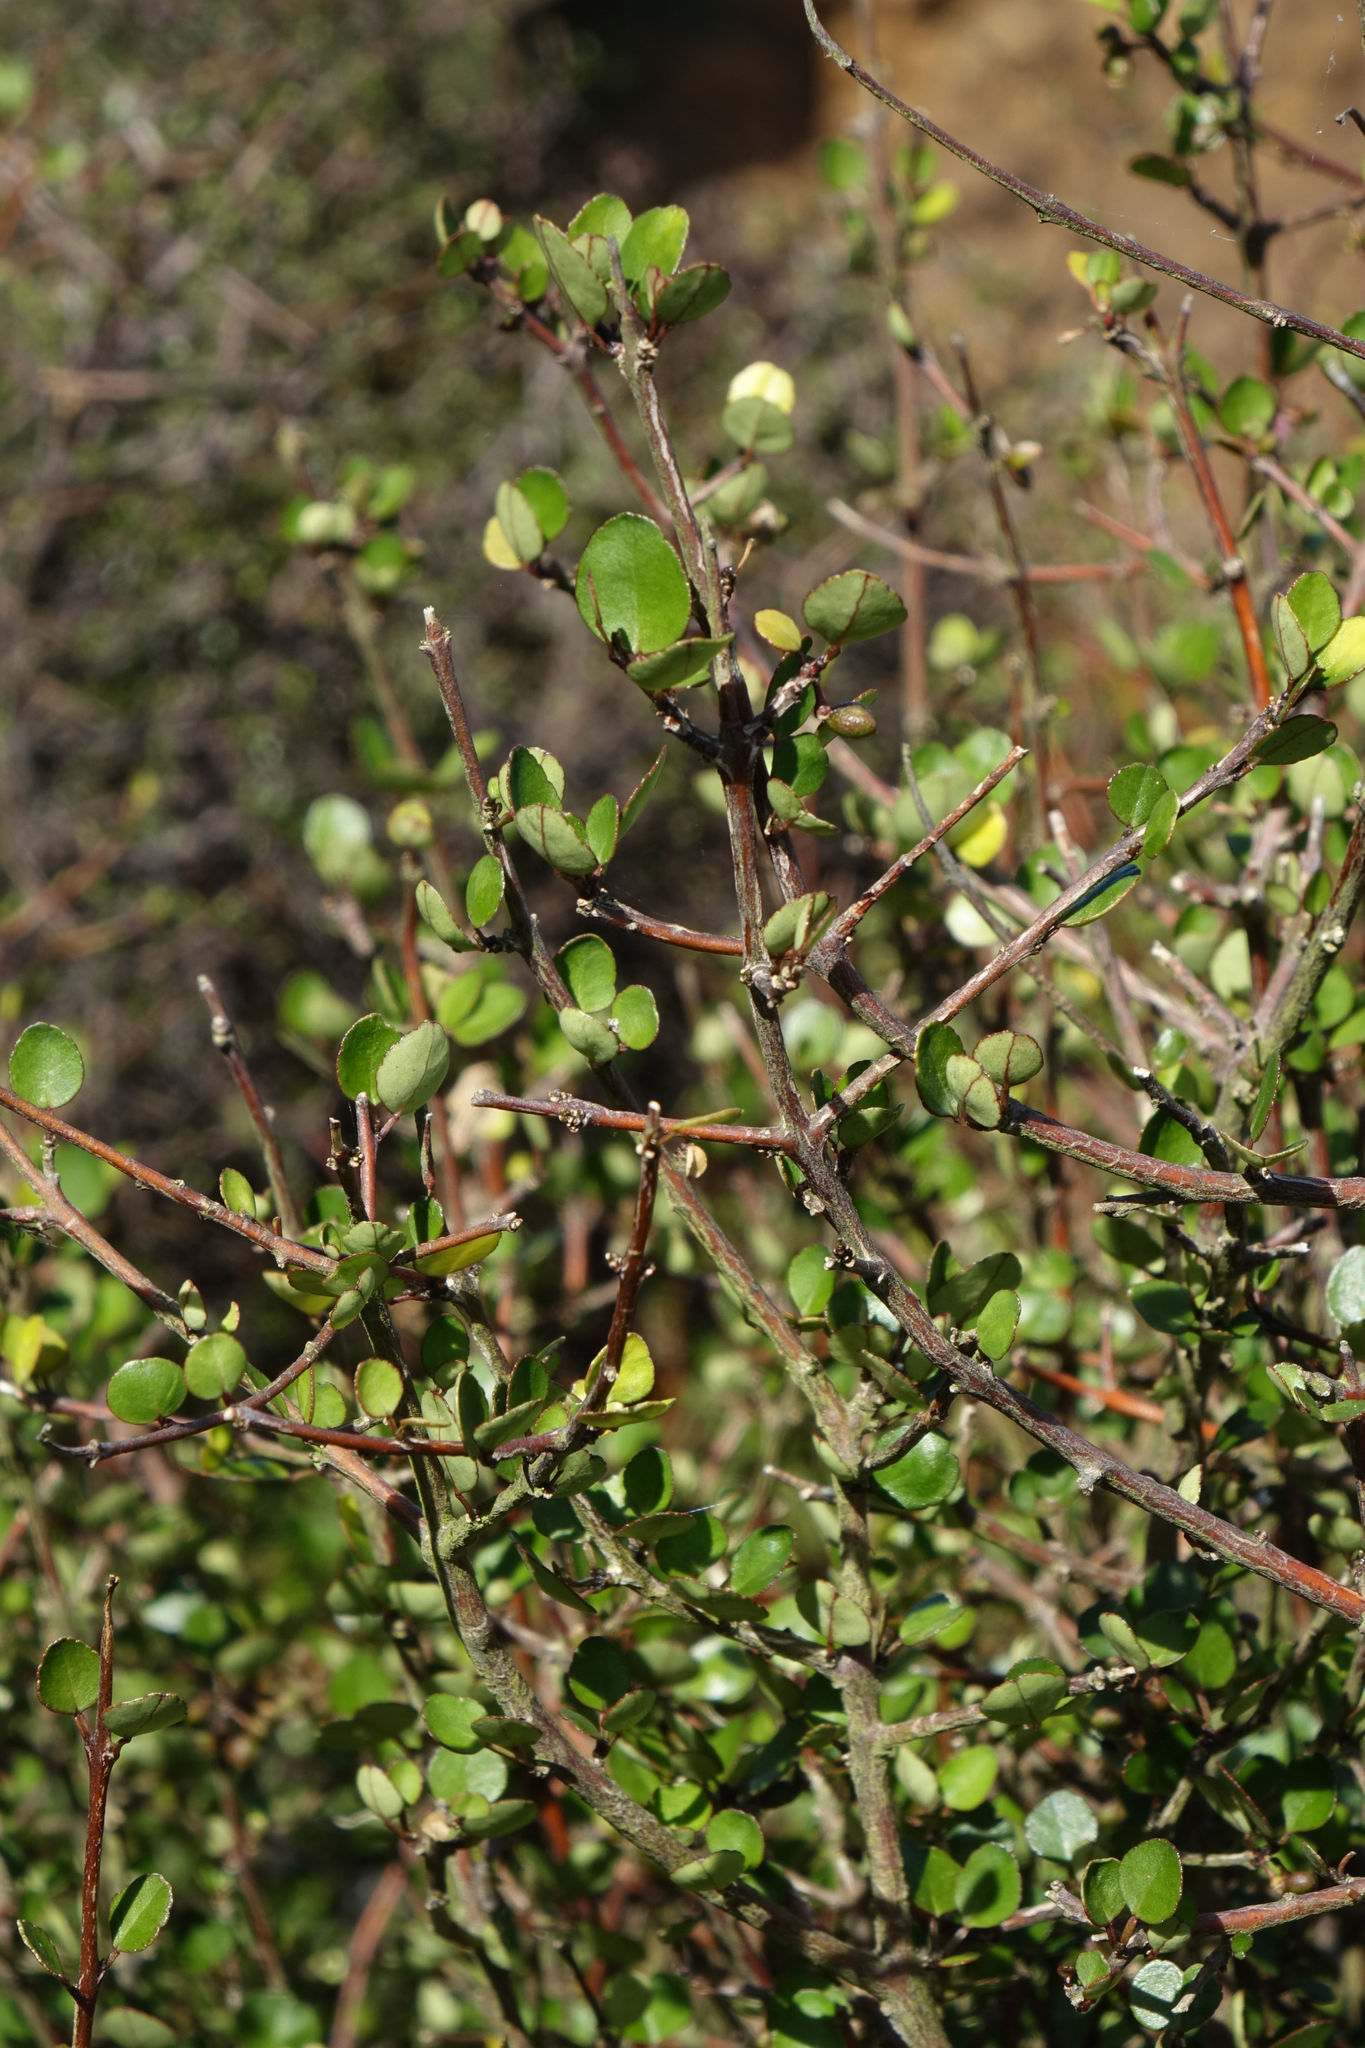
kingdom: Plantae
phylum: Tracheophyta
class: Magnoliopsida
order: Sapindales
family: Rutaceae
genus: Melicope
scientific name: Melicope simplex
